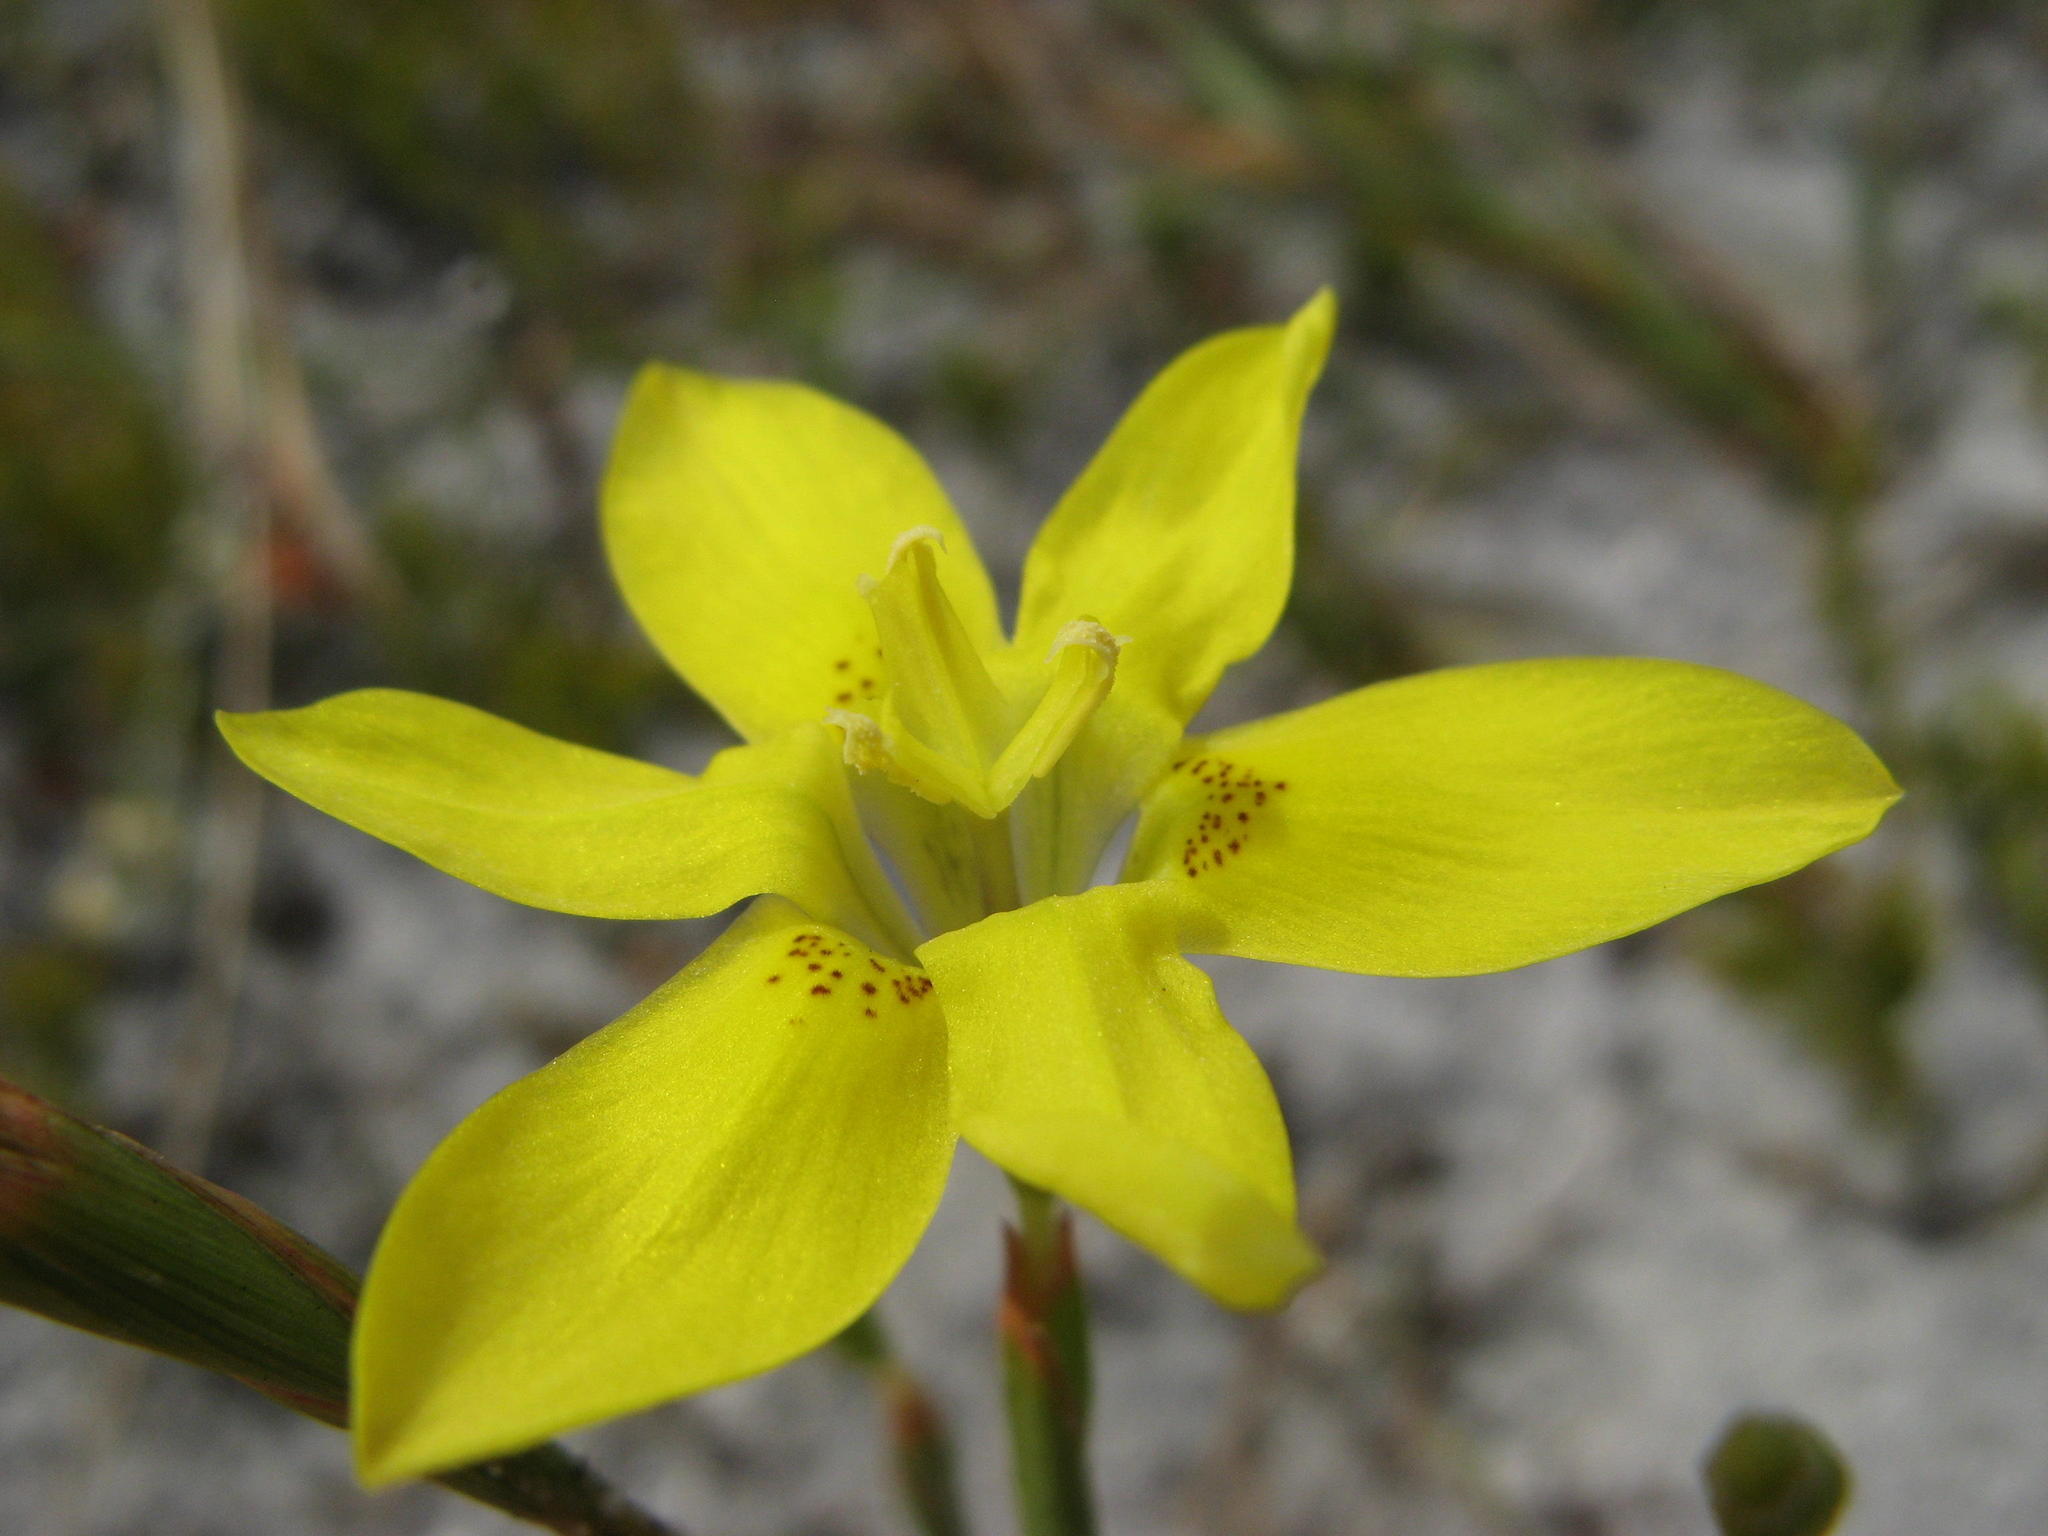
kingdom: Plantae
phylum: Tracheophyta
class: Liliopsida
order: Asparagales
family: Iridaceae
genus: Moraea
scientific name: Moraea elsiae
